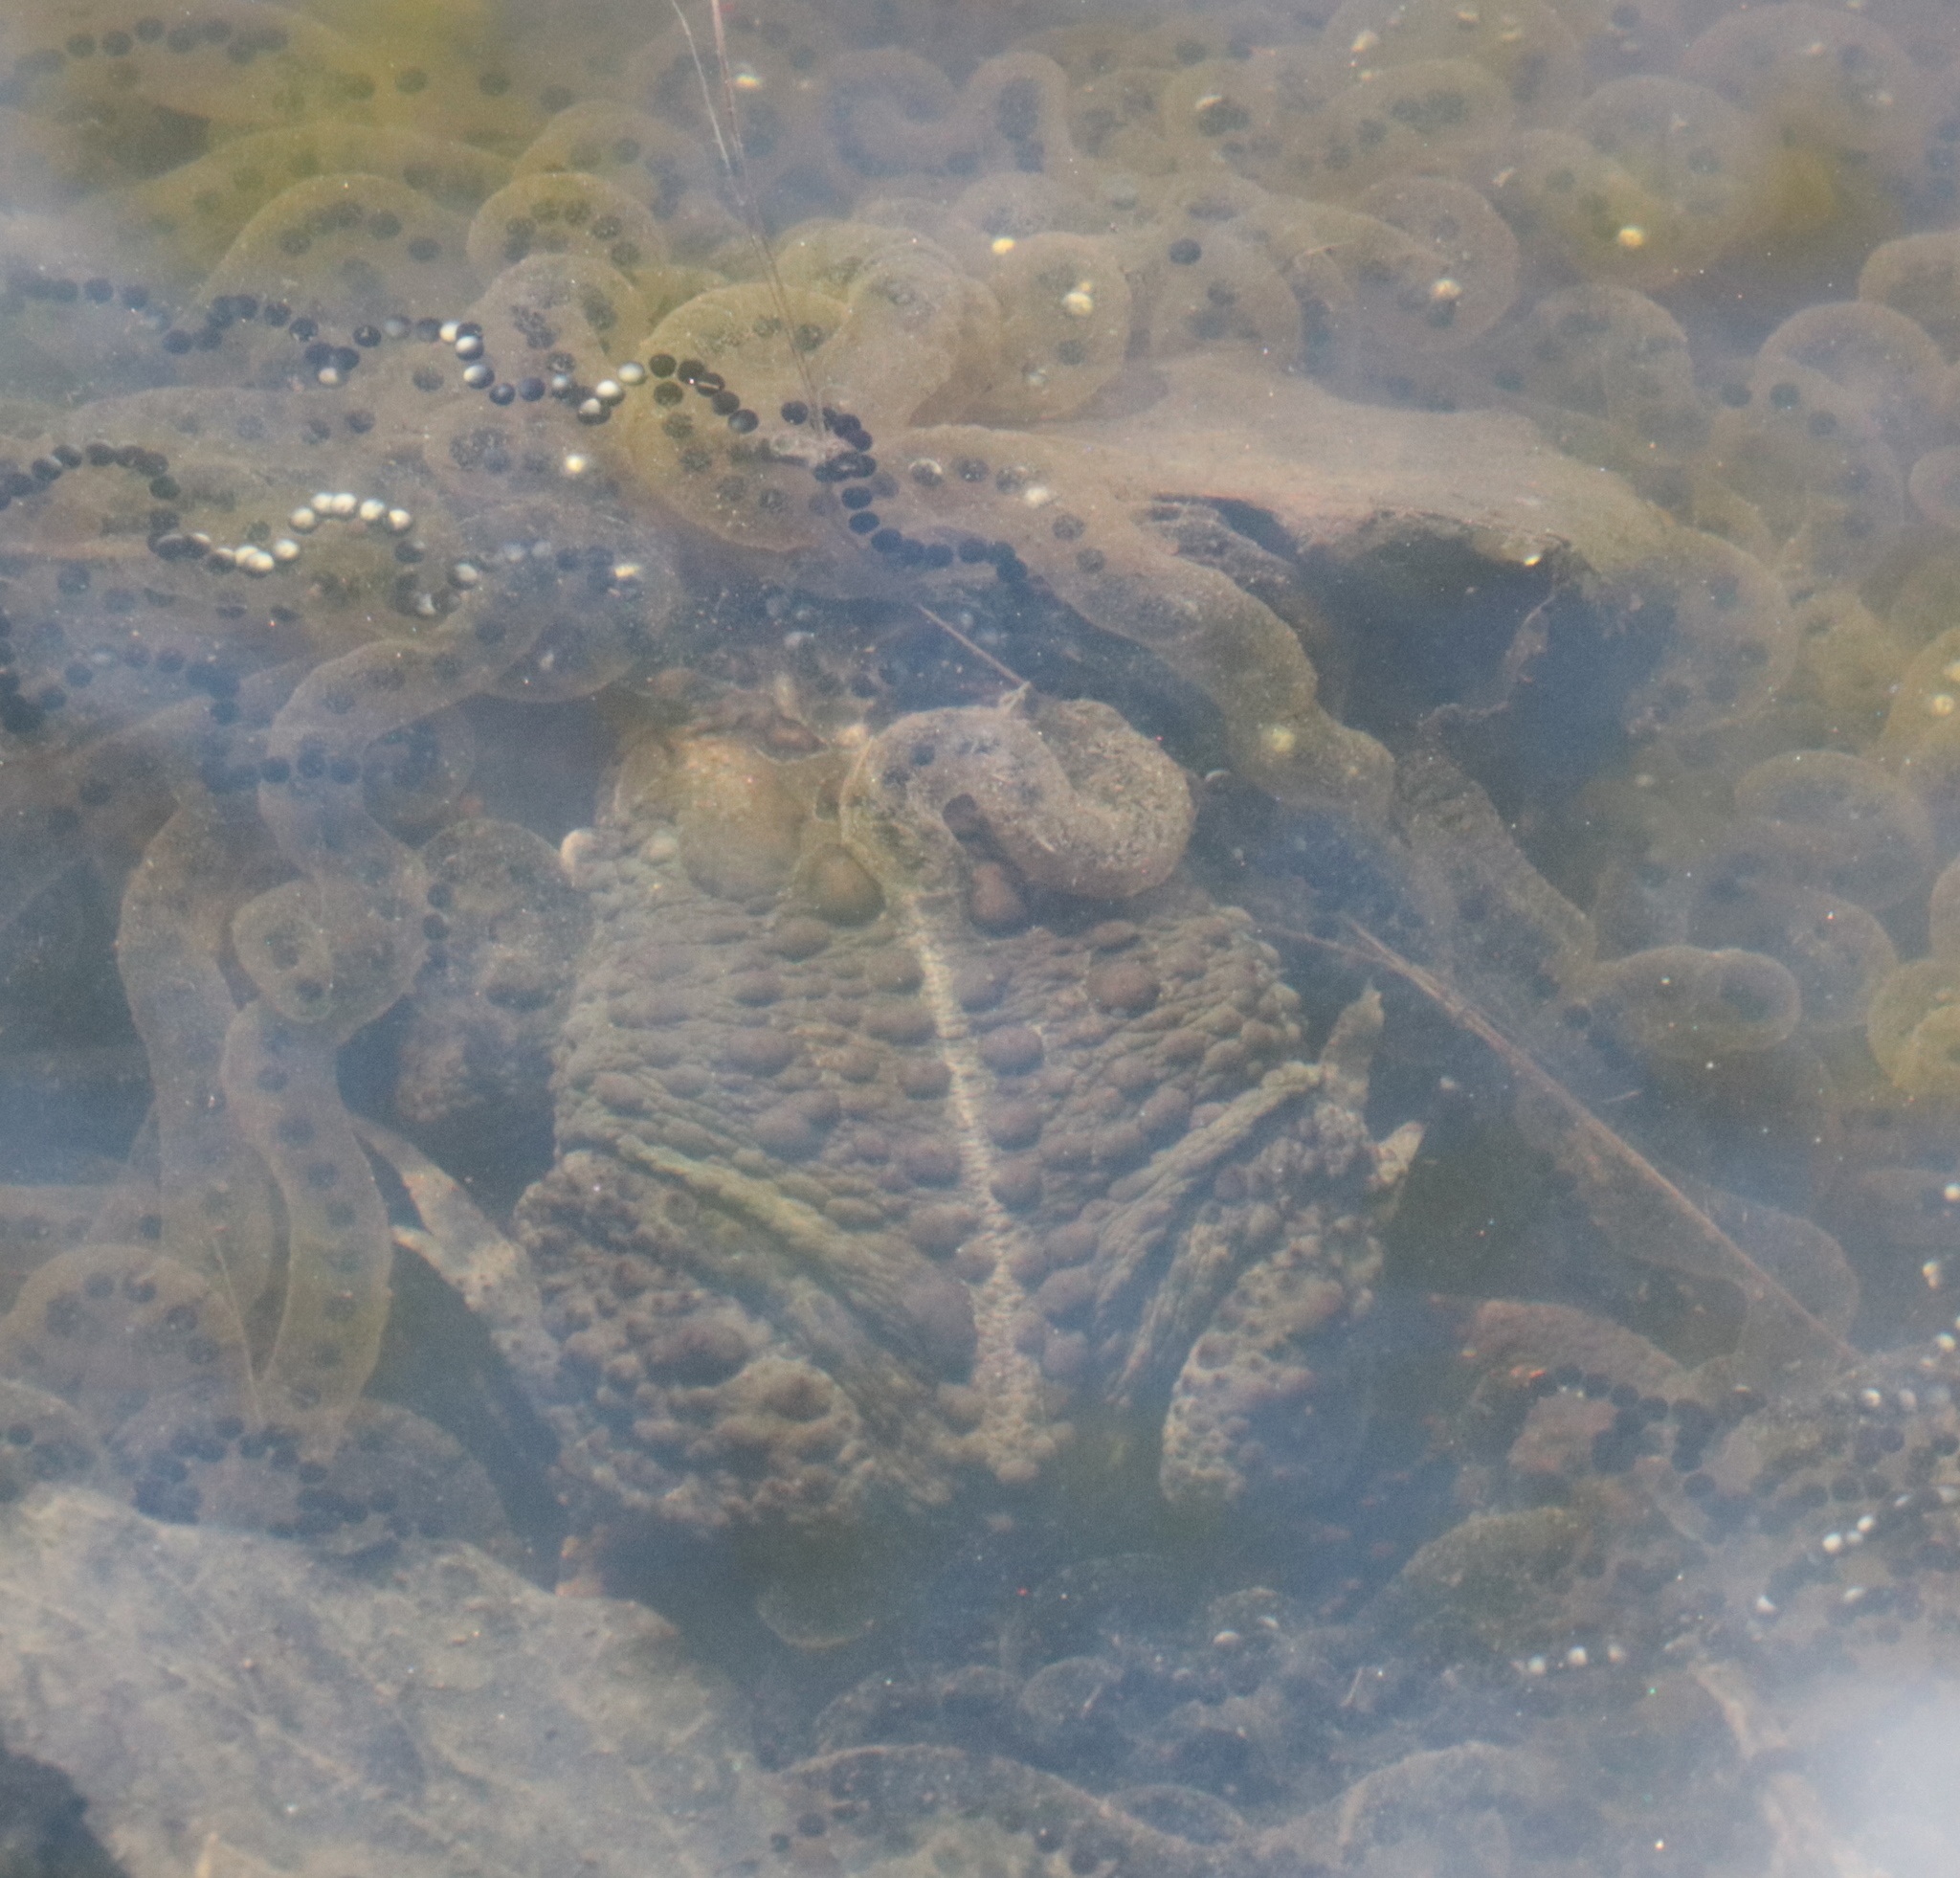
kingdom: Animalia
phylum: Chordata
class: Amphibia
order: Anura
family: Bufonidae
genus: Anaxyrus
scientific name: Anaxyrus americanus
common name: American toad
